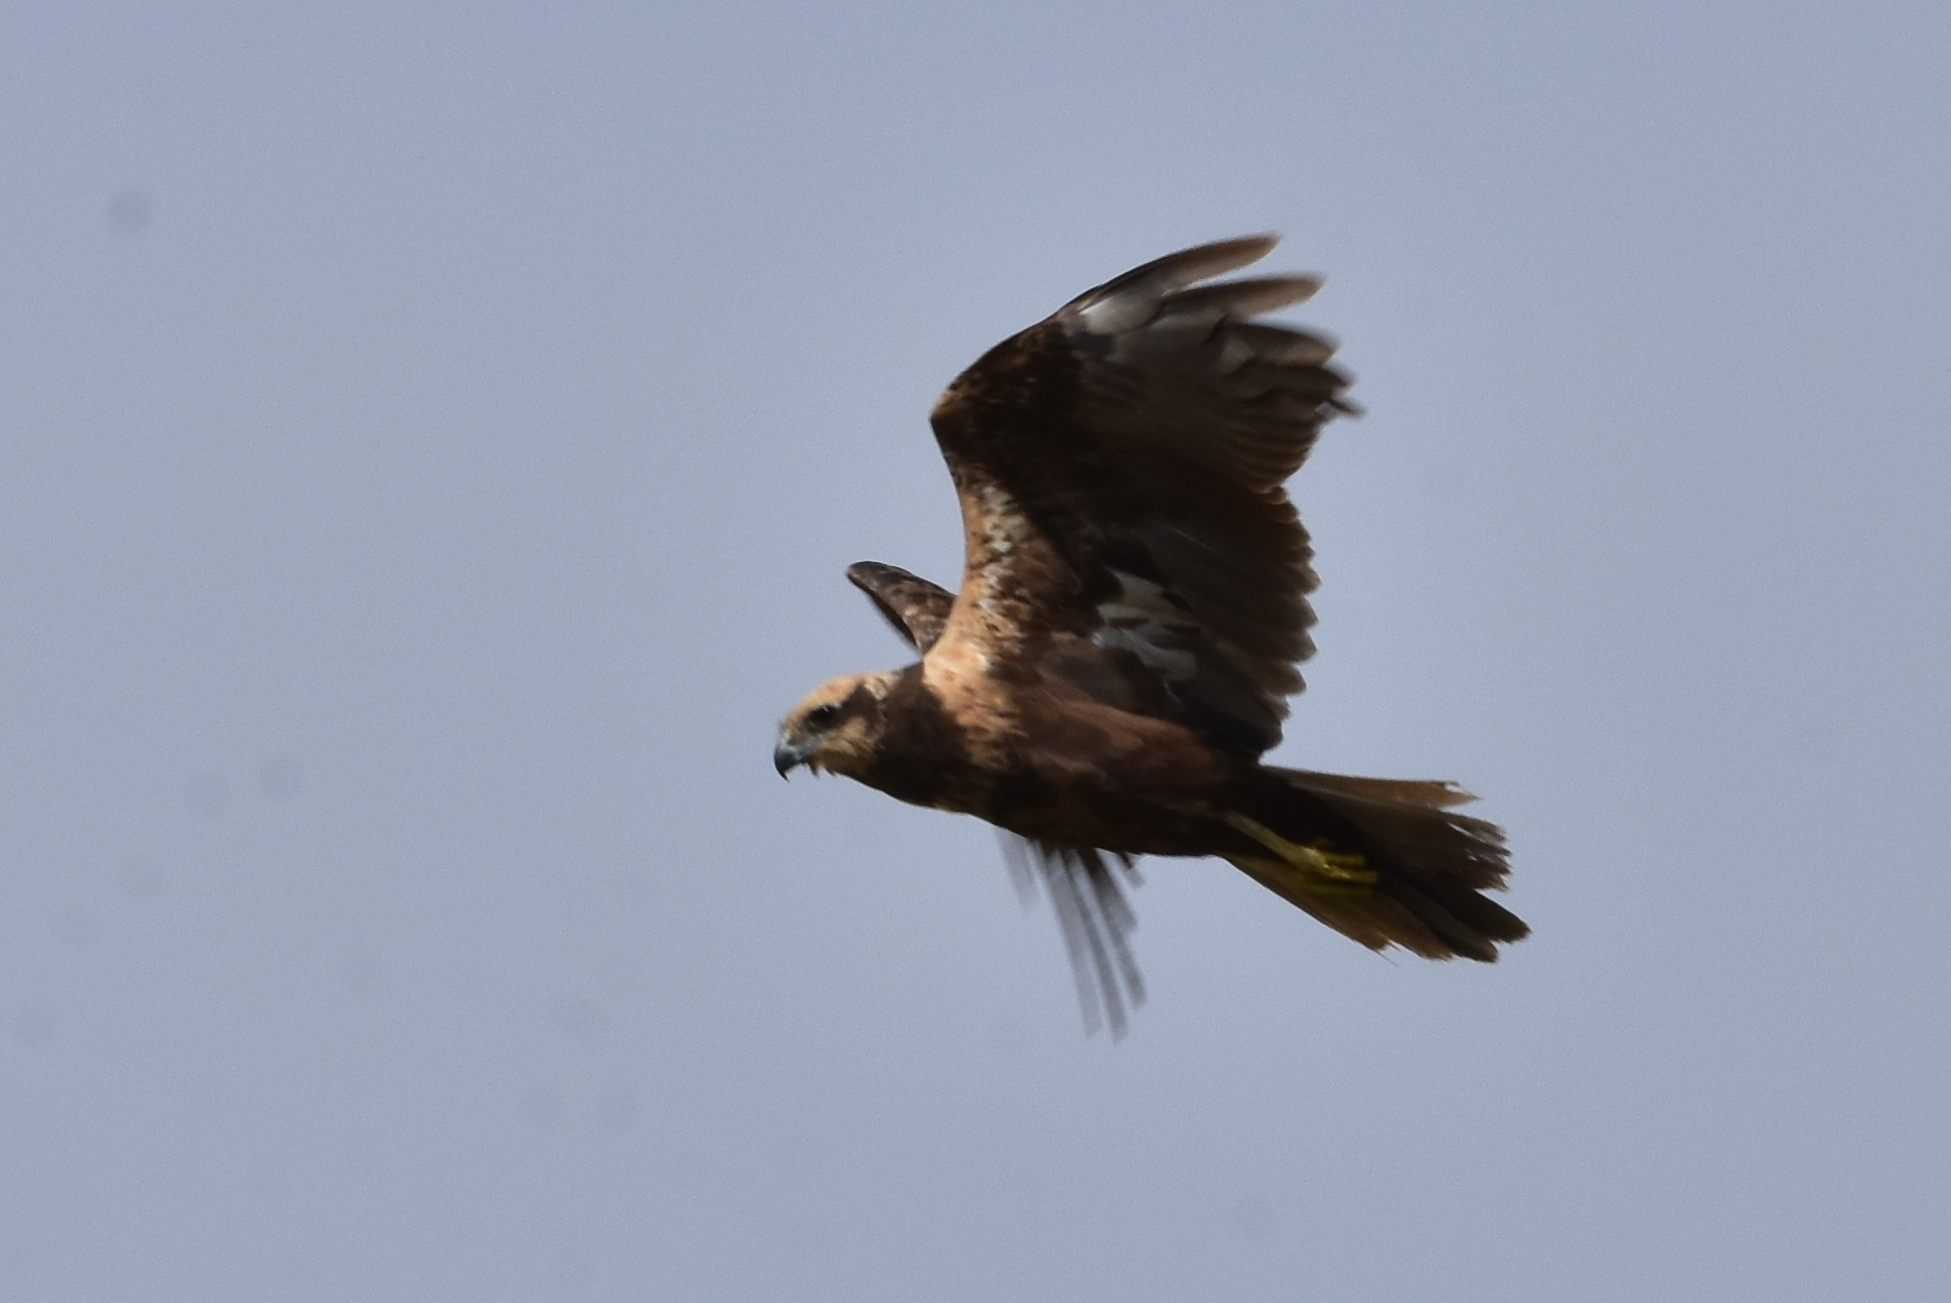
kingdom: Animalia
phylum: Chordata
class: Aves
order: Accipitriformes
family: Accipitridae
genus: Circus
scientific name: Circus aeruginosus
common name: Western marsh harrier
